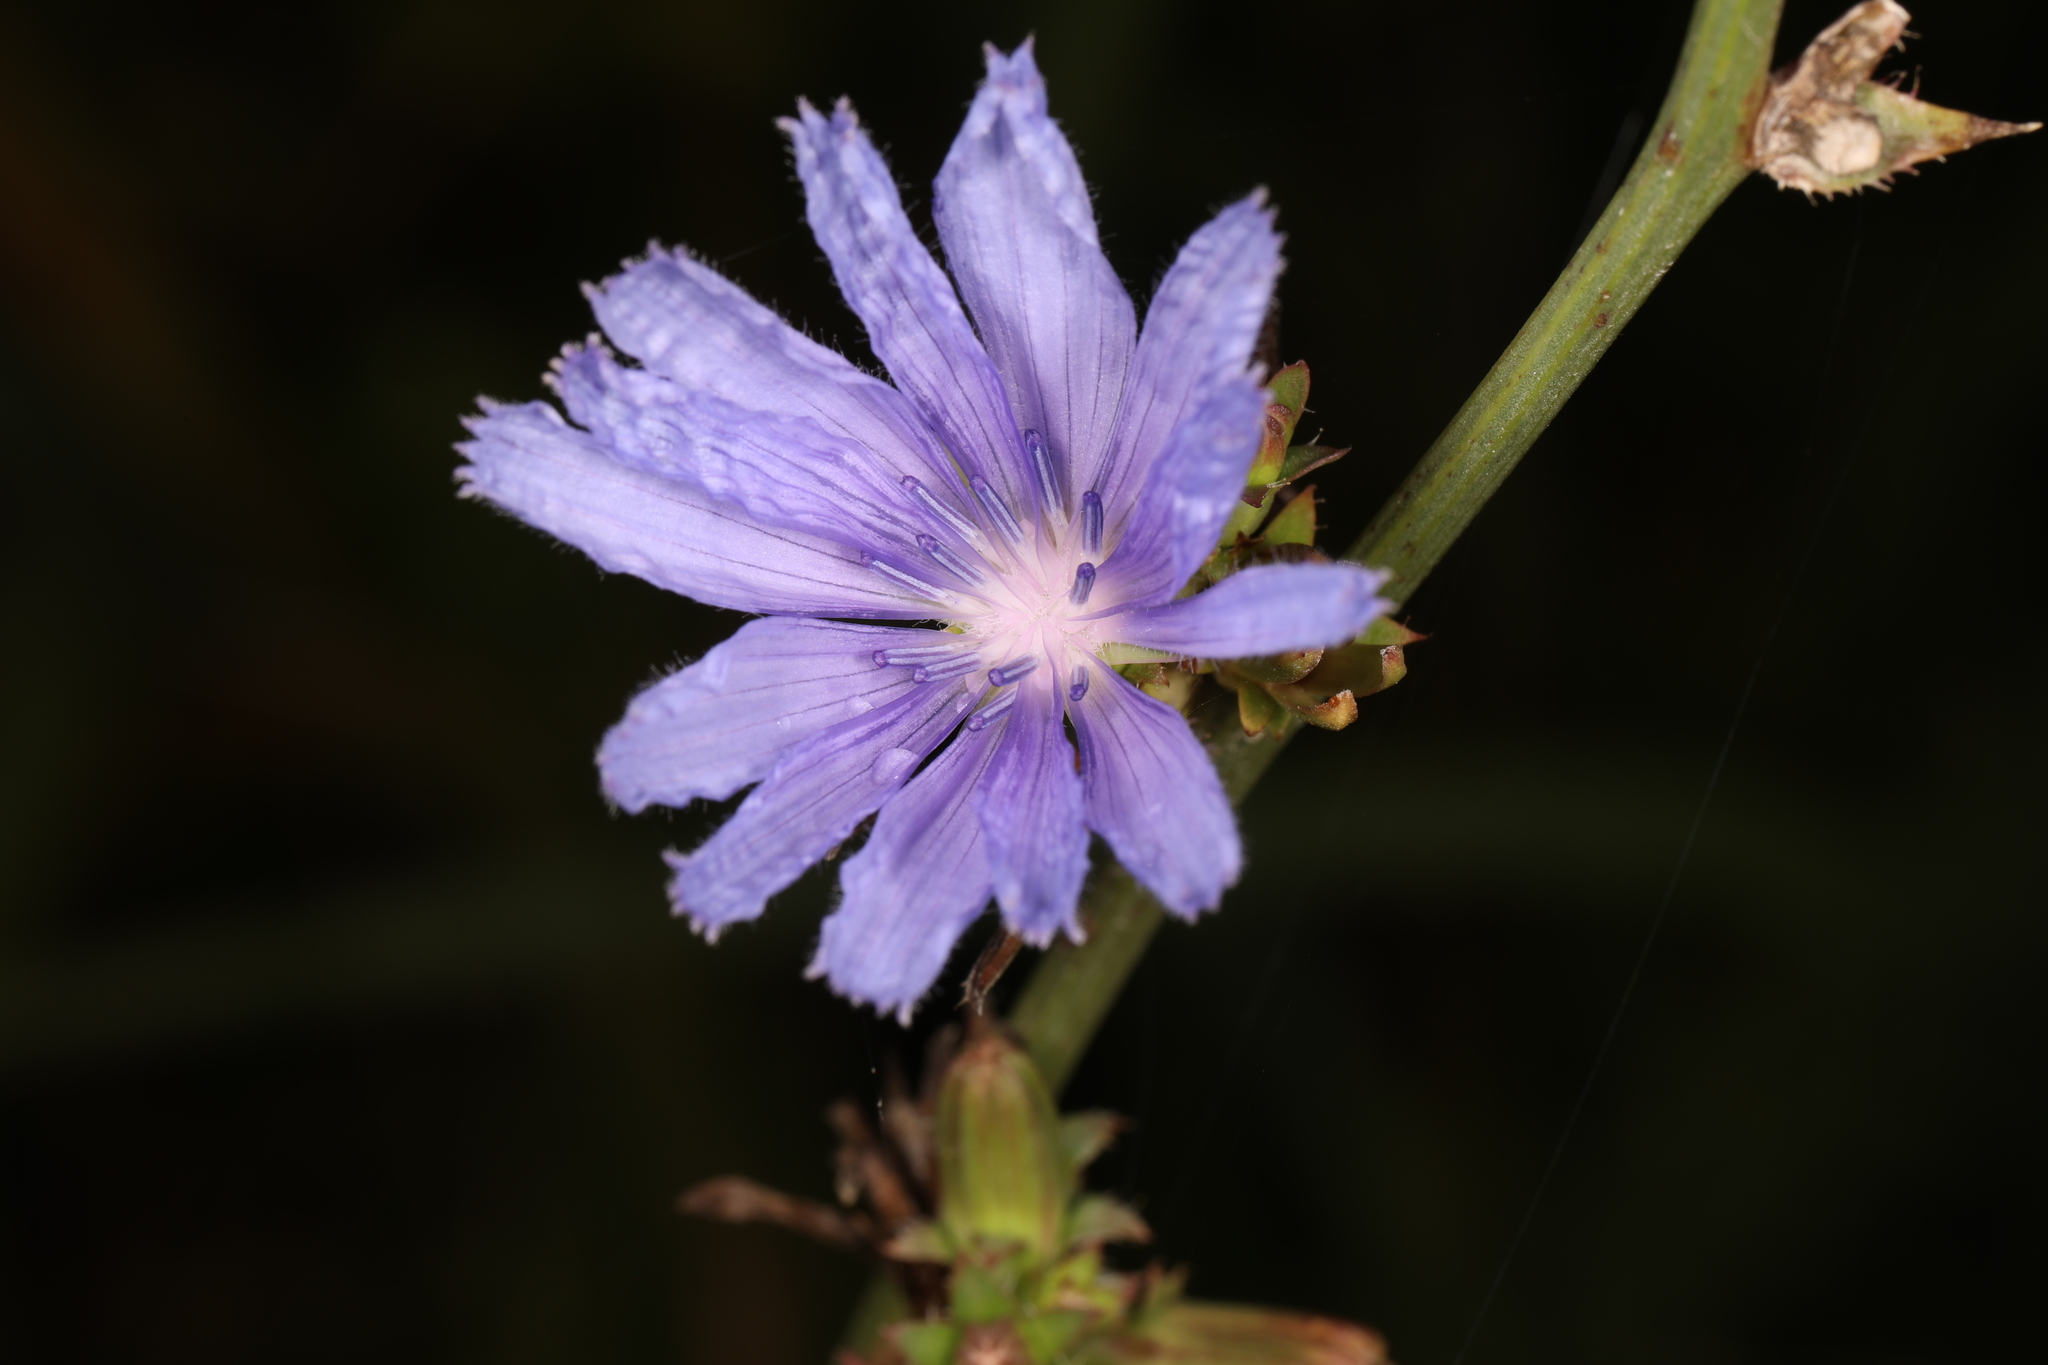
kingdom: Plantae
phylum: Tracheophyta
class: Magnoliopsida
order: Asterales
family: Asteraceae
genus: Cichorium
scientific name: Cichorium intybus
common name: Chicory
